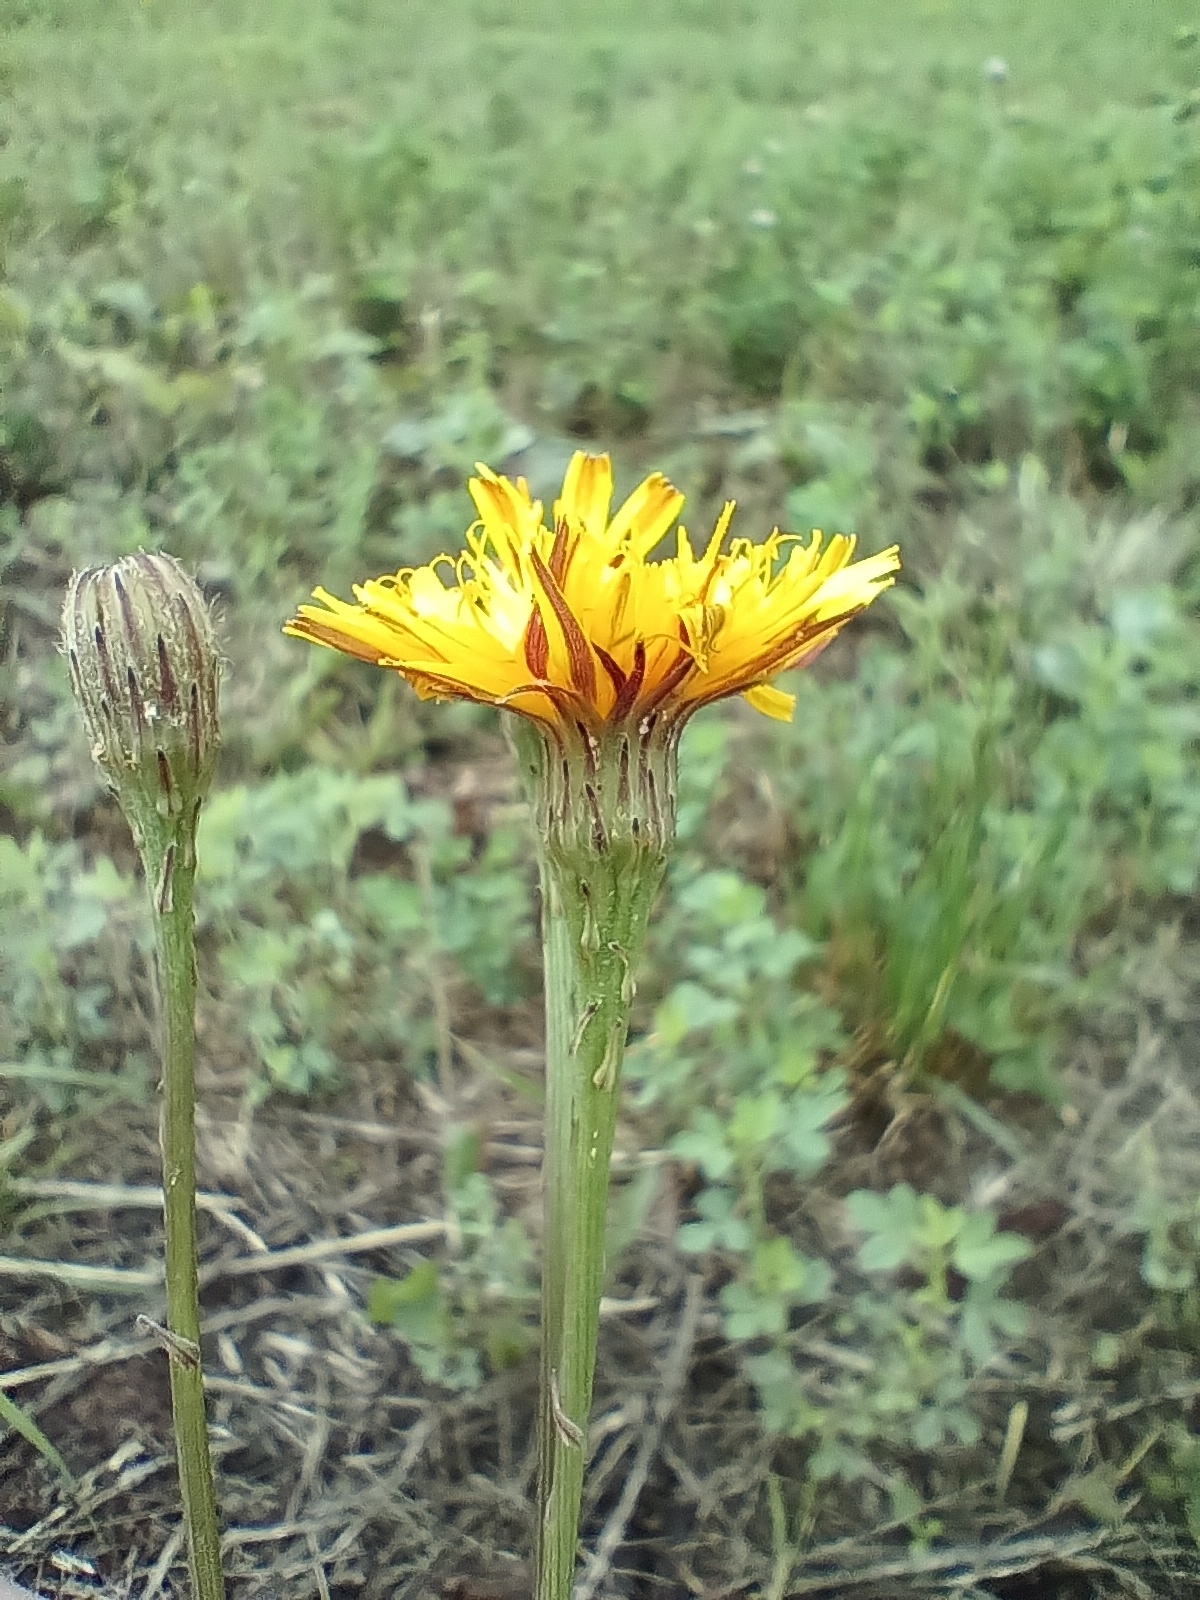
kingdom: Plantae
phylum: Tracheophyta
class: Magnoliopsida
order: Asterales
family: Asteraceae
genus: Scorzoneroides
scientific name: Scorzoneroides autumnalis
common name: Autumn hawkbit
